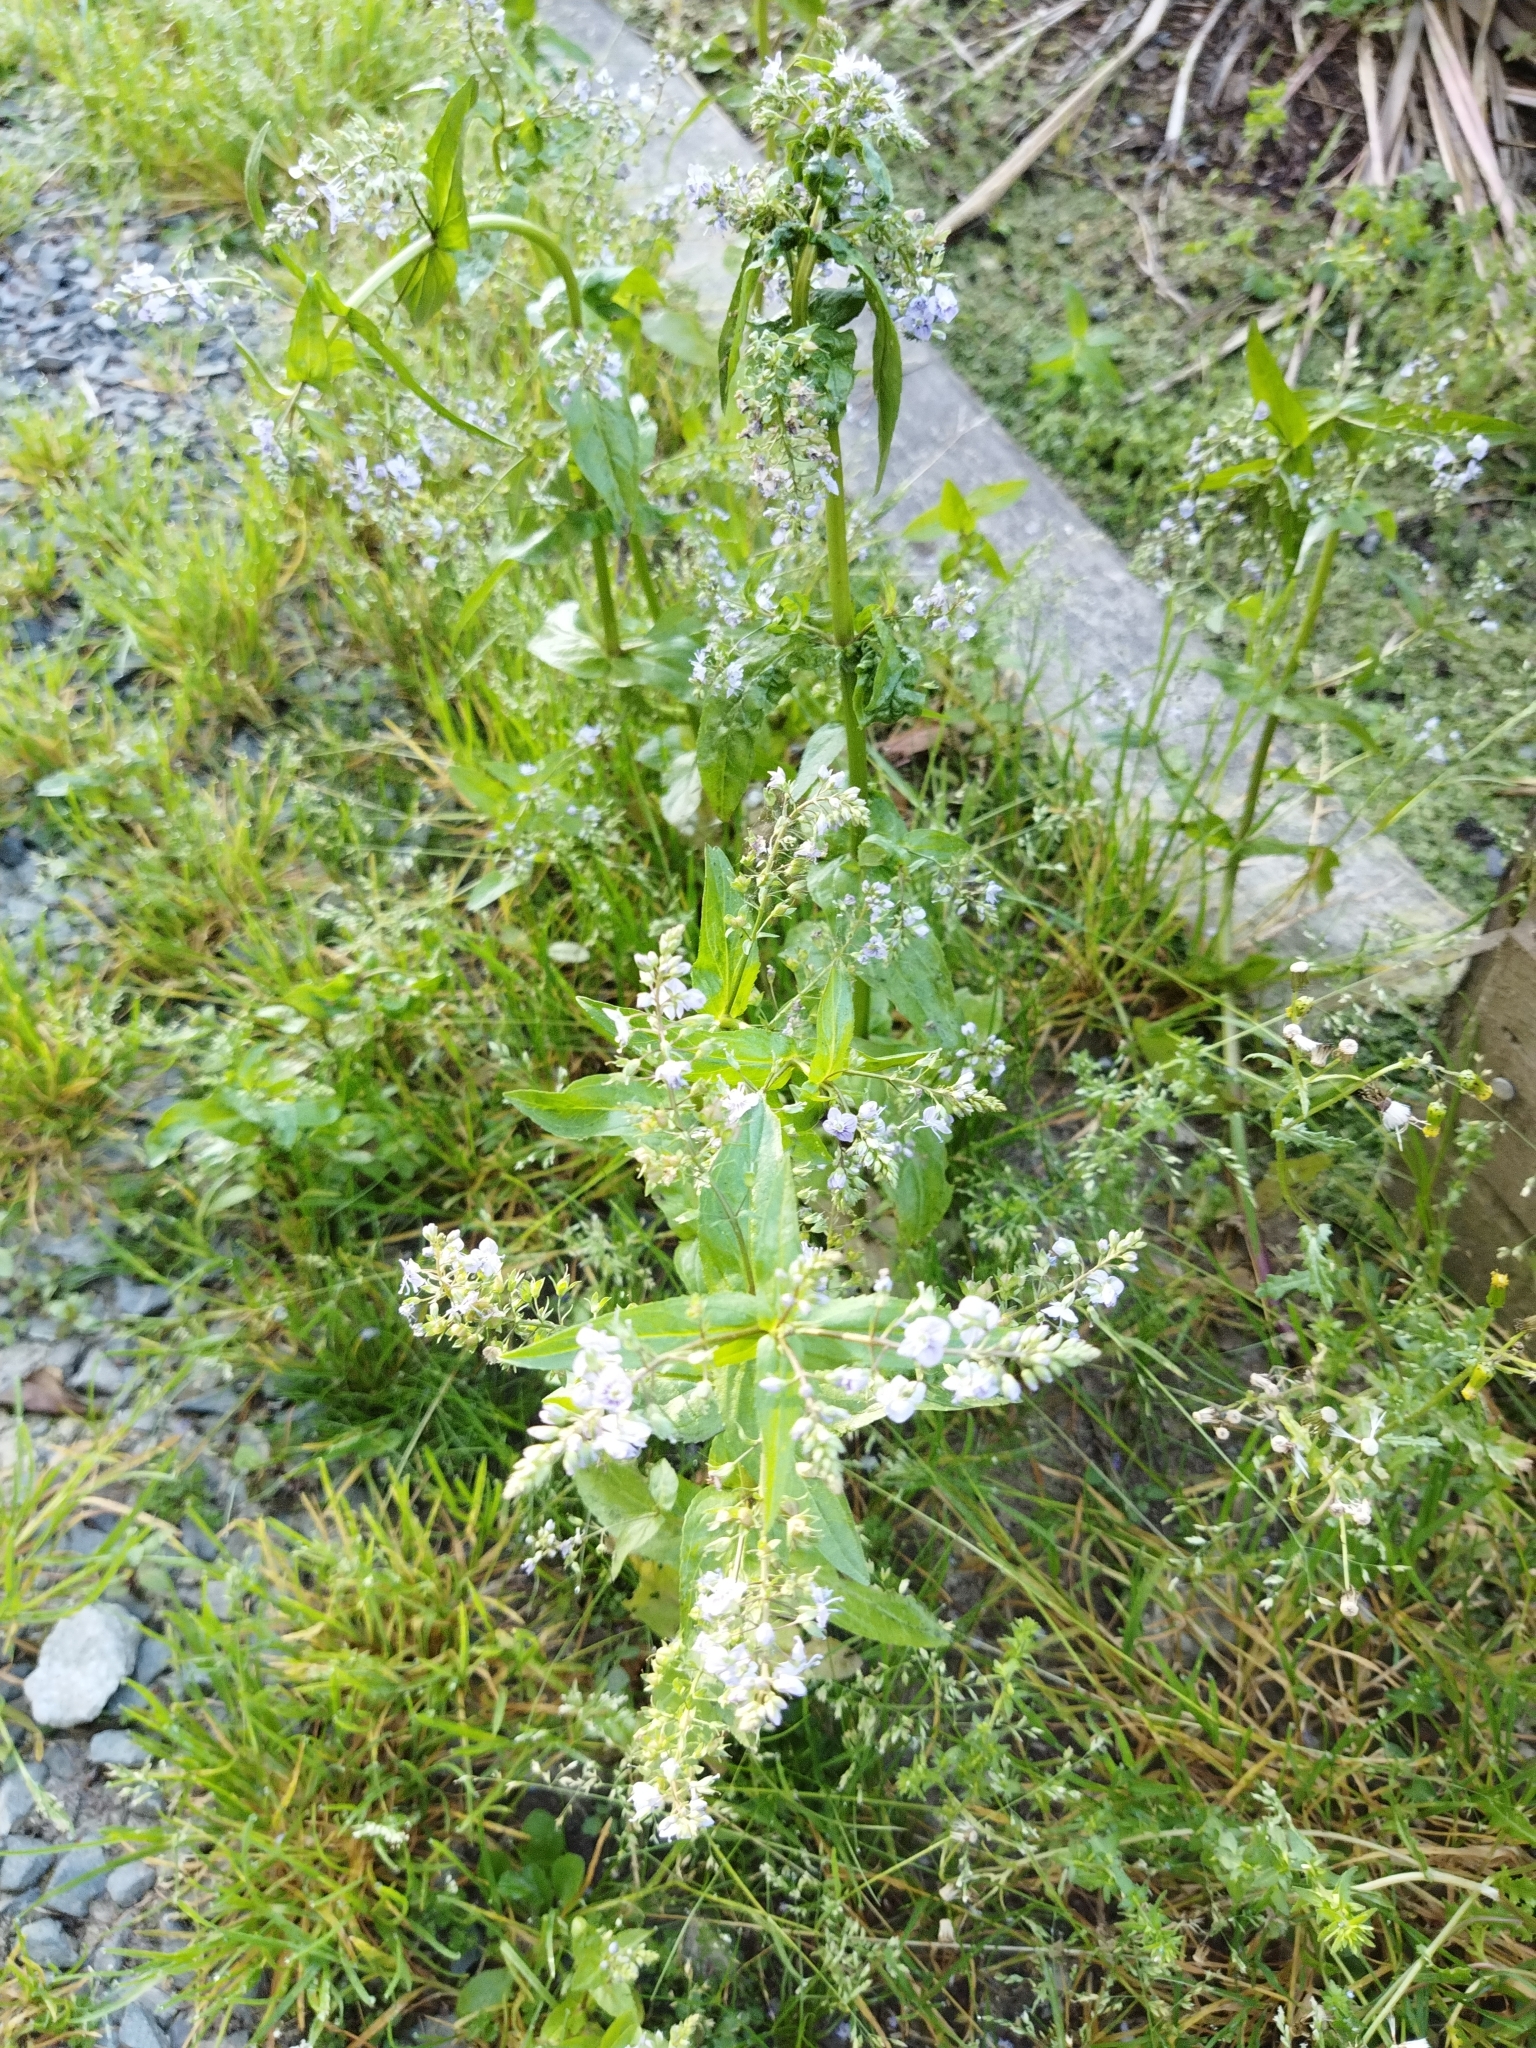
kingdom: Plantae
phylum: Tracheophyta
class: Magnoliopsida
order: Lamiales
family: Plantaginaceae
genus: Veronica
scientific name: Veronica anagallis-aquatica
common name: Water speedwell
